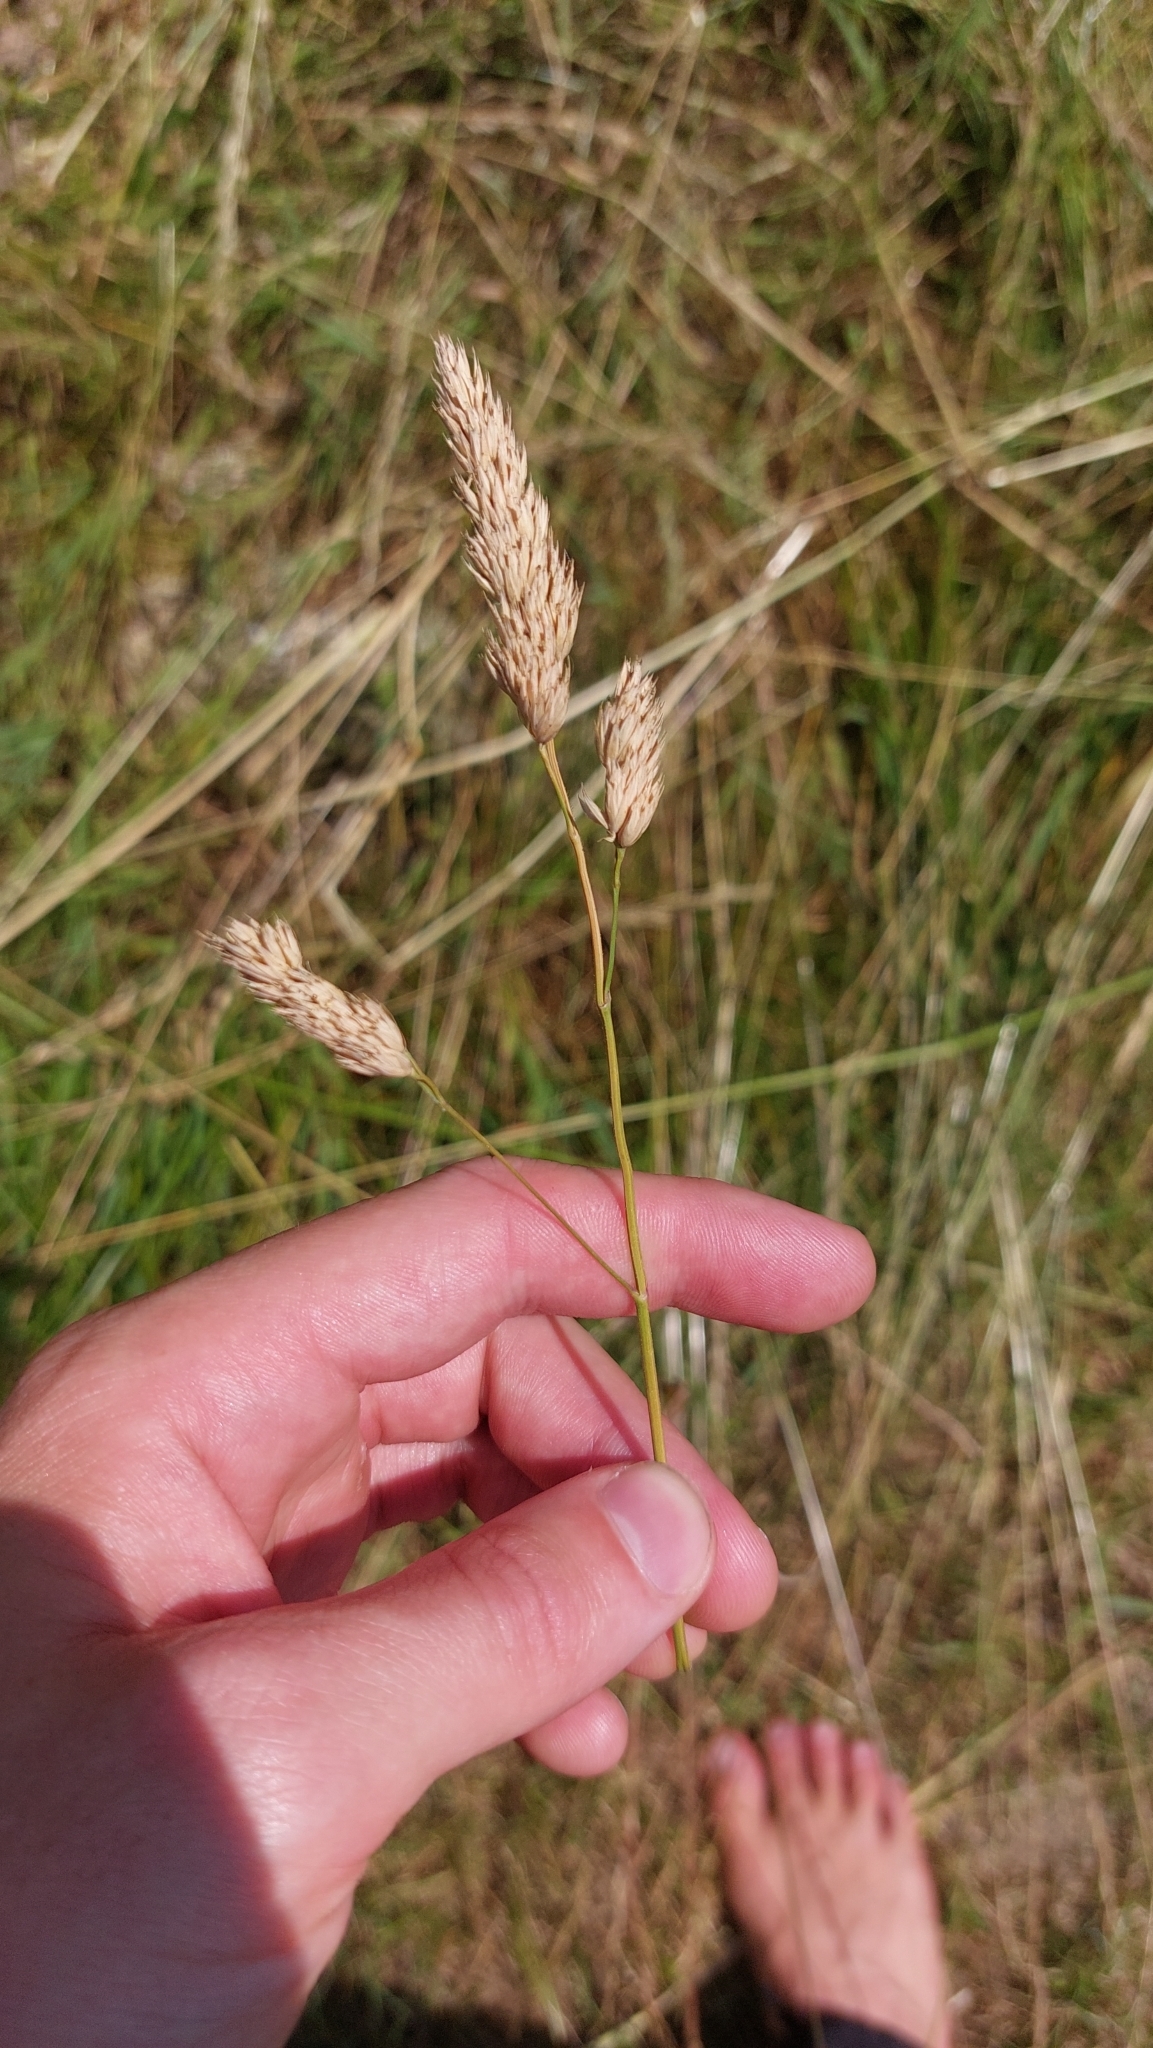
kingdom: Plantae
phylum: Tracheophyta
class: Liliopsida
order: Poales
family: Poaceae
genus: Dactylis
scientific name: Dactylis glomerata
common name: Orchardgrass
